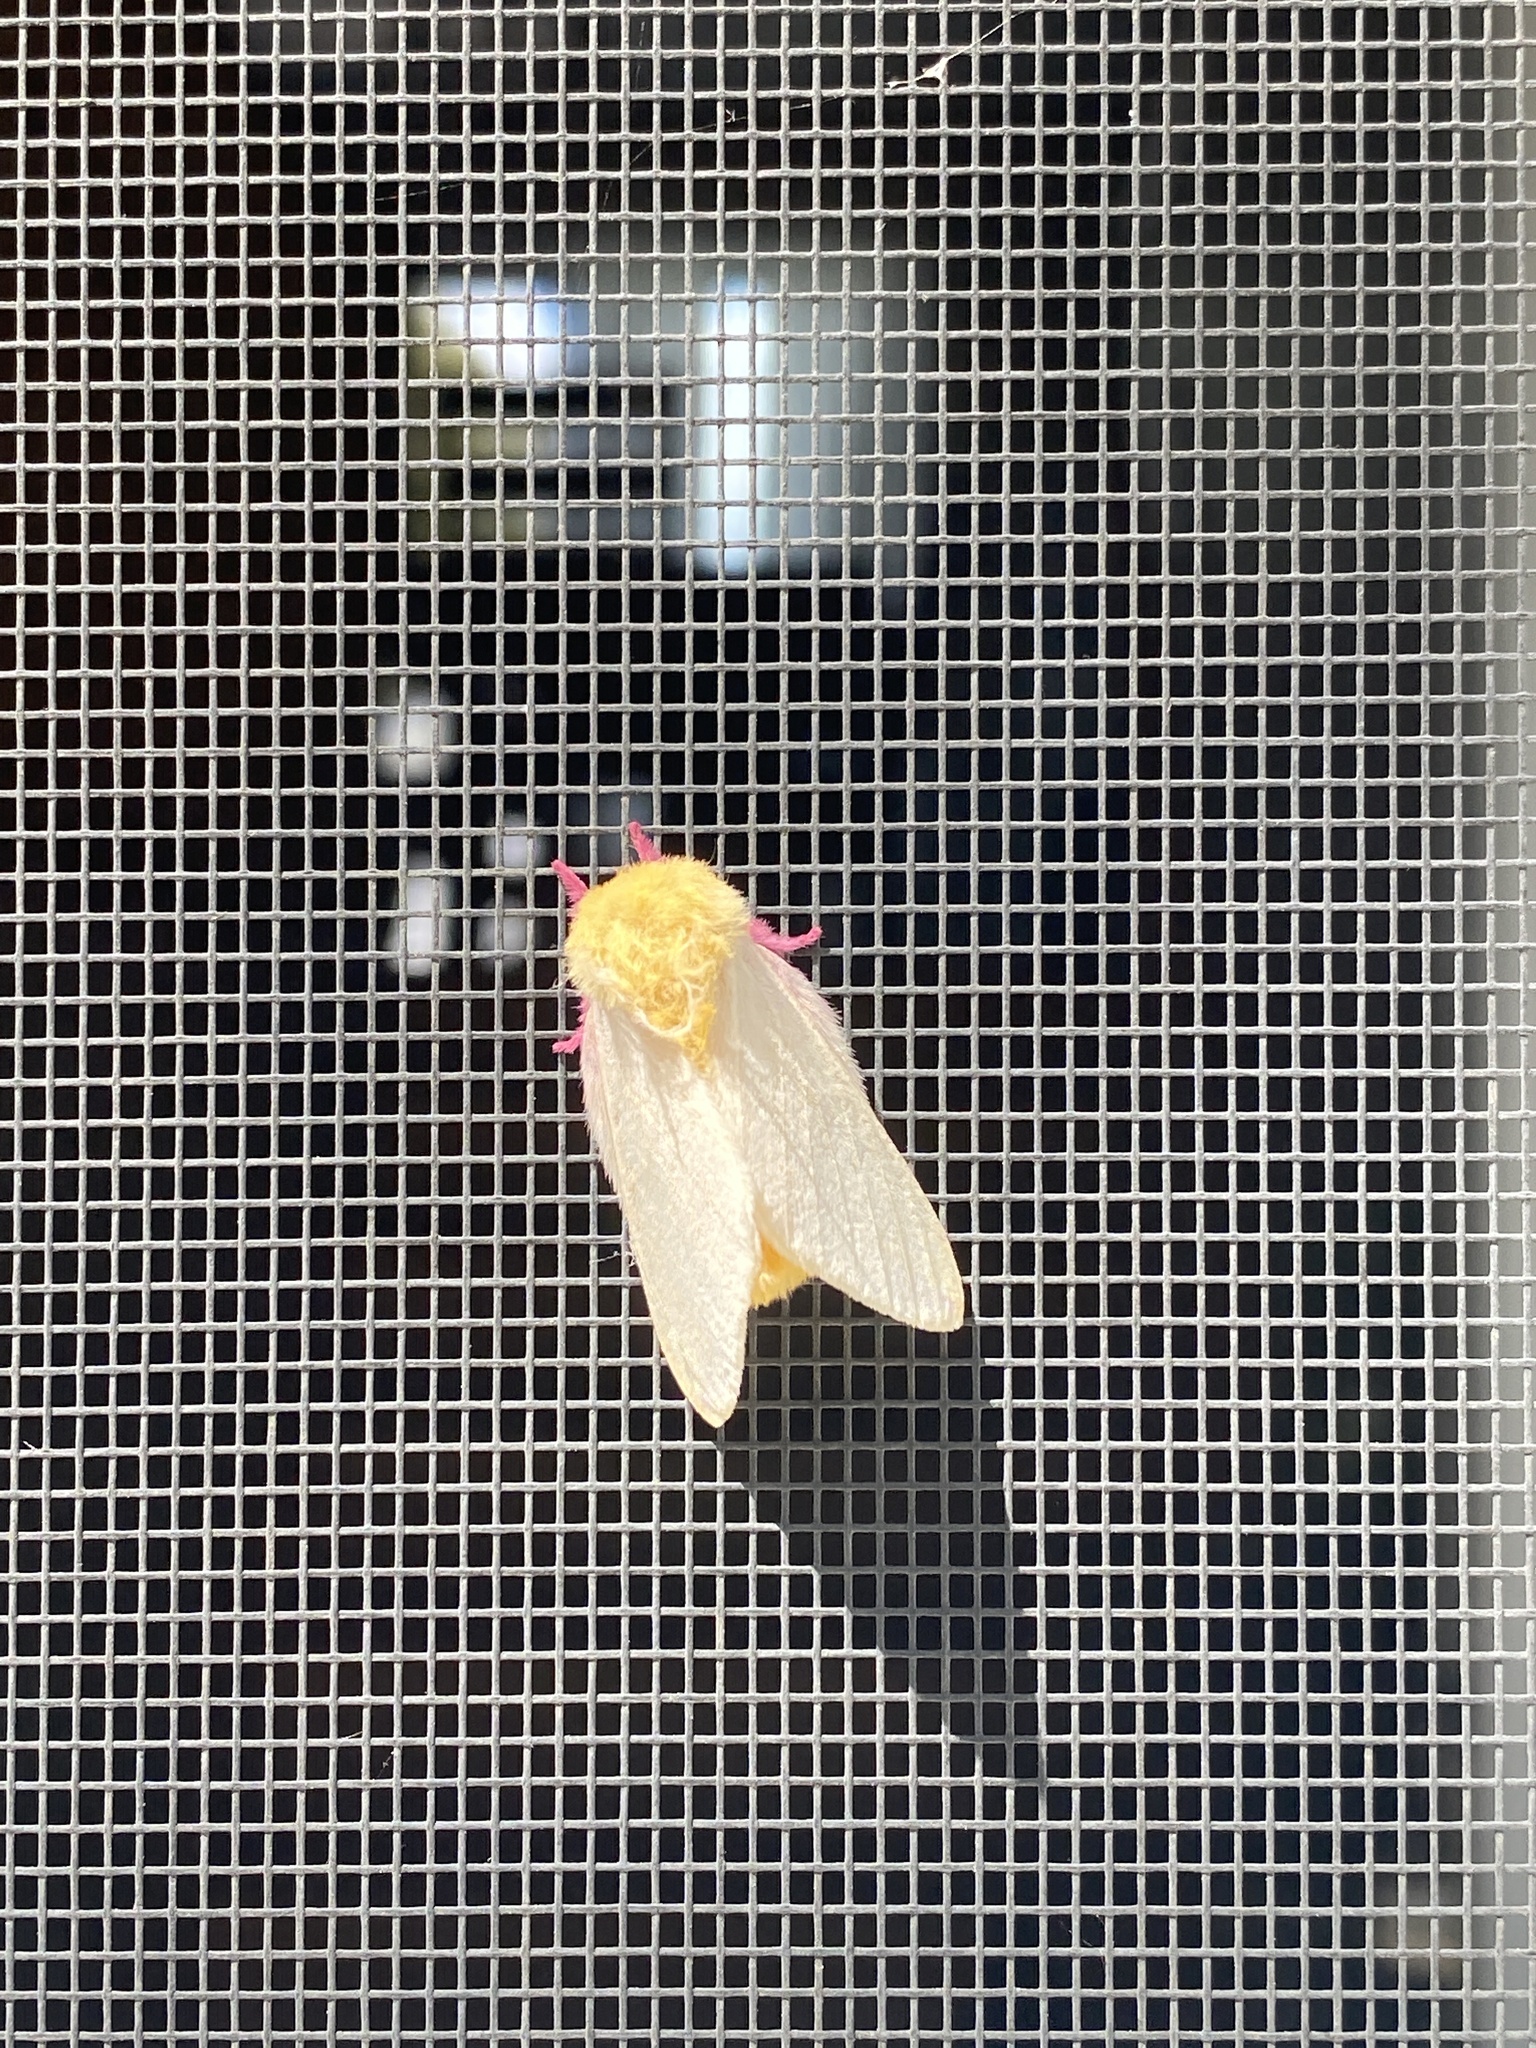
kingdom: Animalia
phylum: Arthropoda
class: Insecta
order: Lepidoptera
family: Saturniidae
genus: Dryocampa
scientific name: Dryocampa rubicunda
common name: Rosy maple moth
